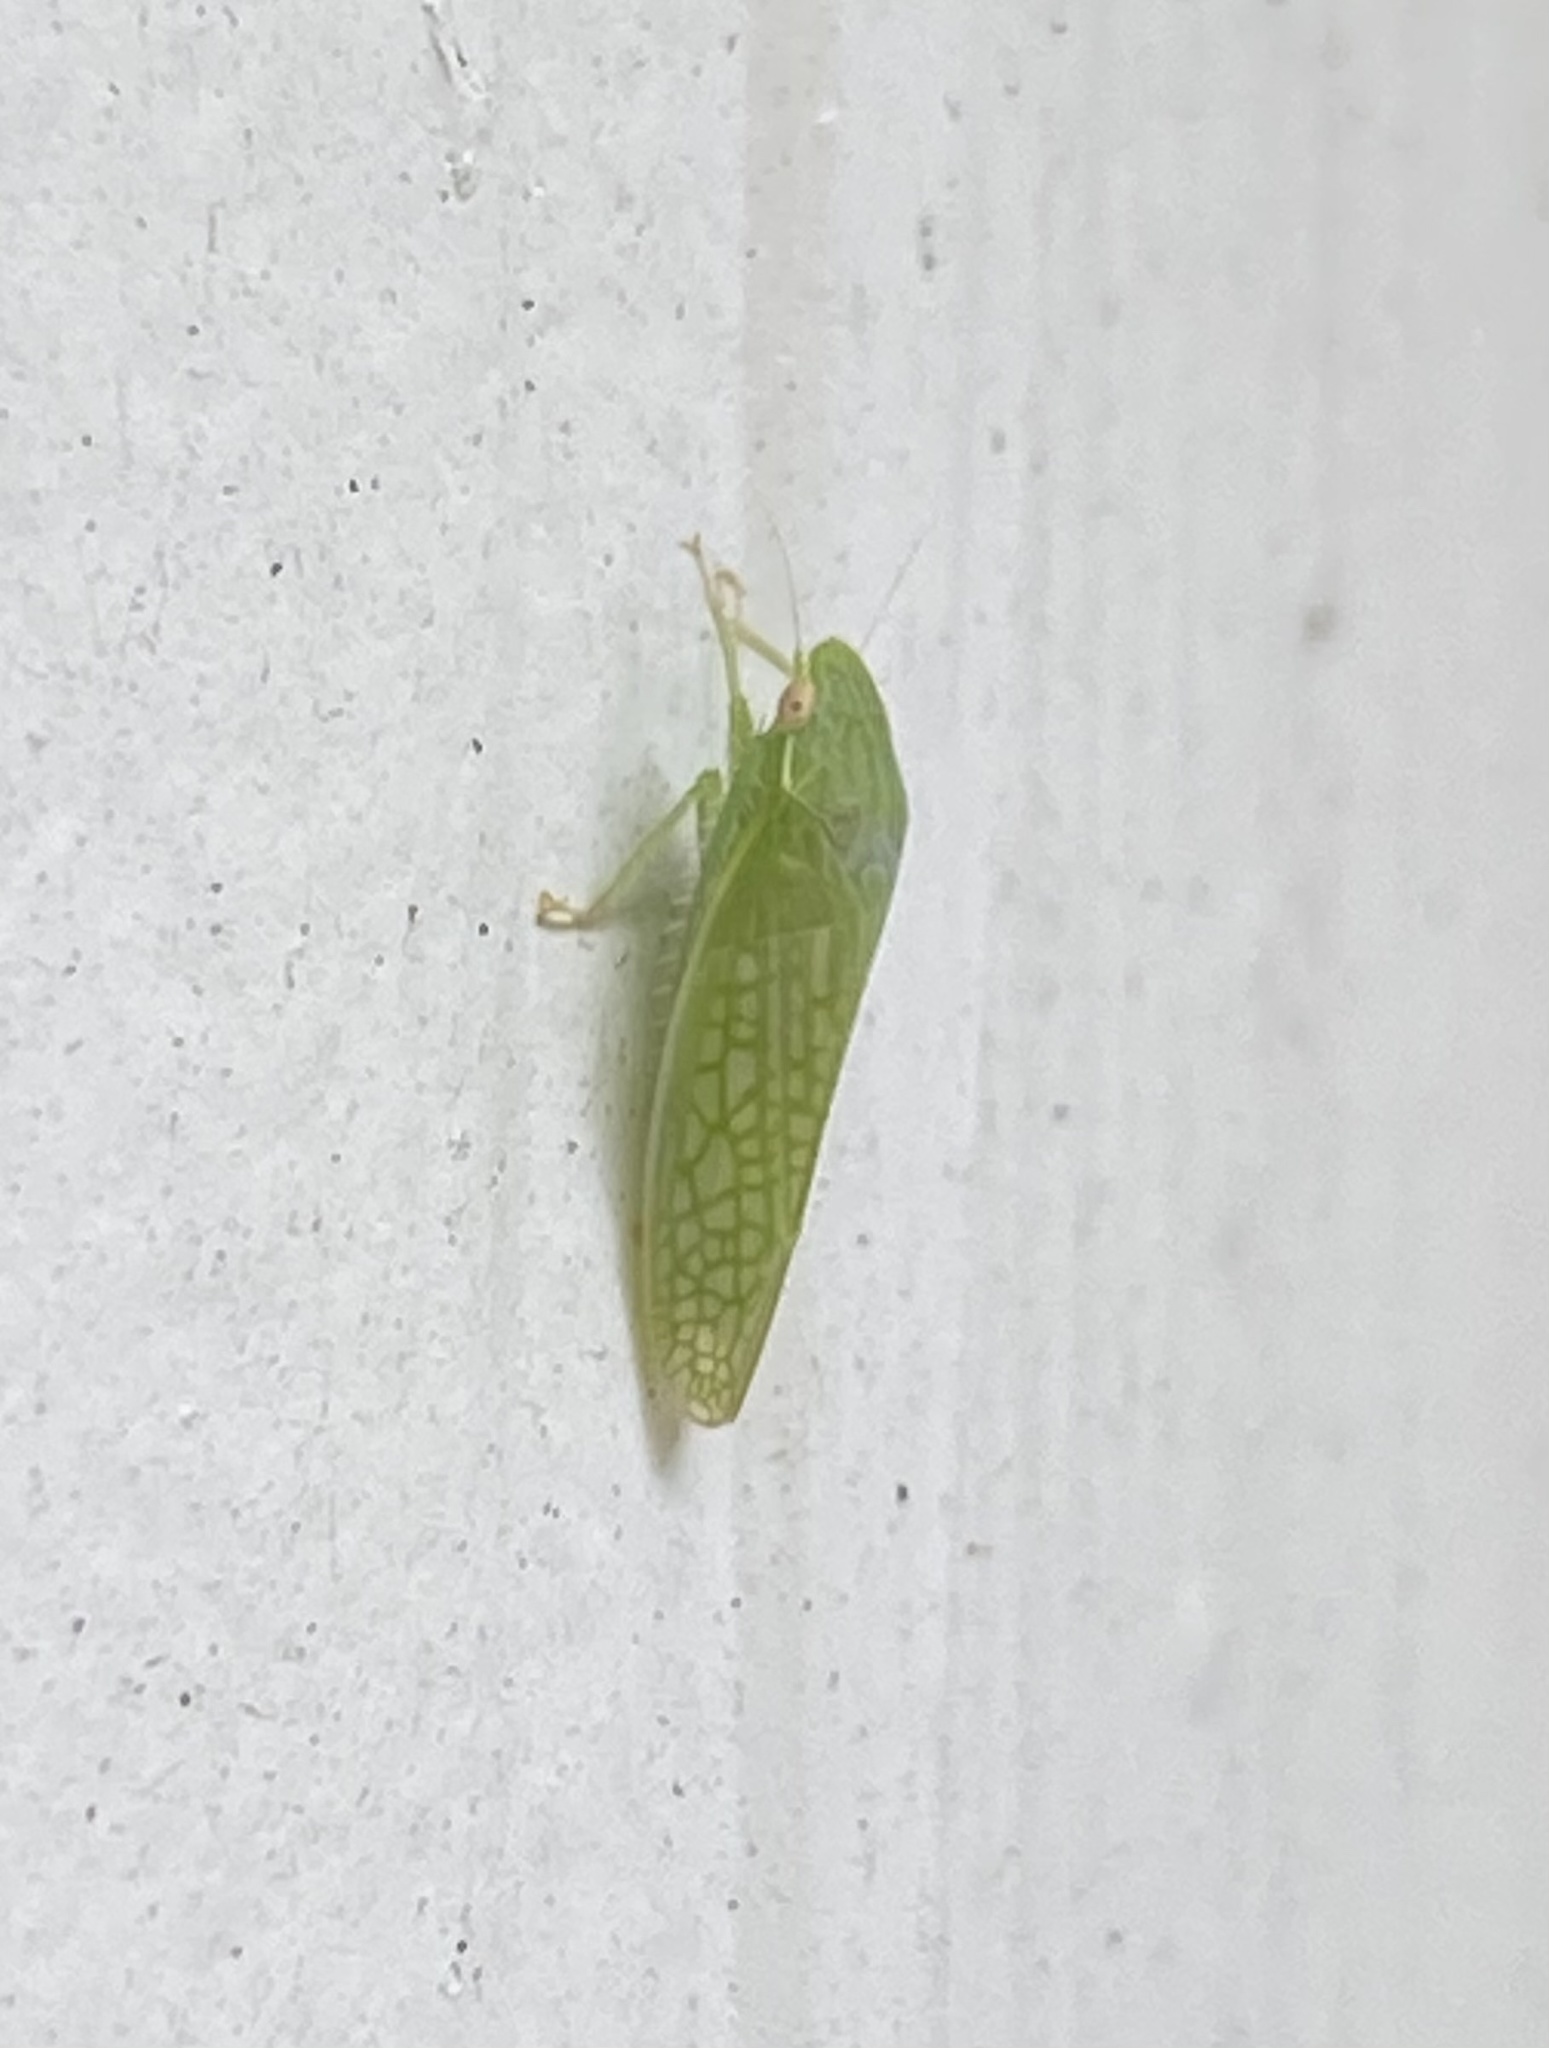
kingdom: Animalia
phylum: Arthropoda
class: Insecta
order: Hemiptera
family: Cicadellidae
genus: Gyponana
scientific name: Gyponana
